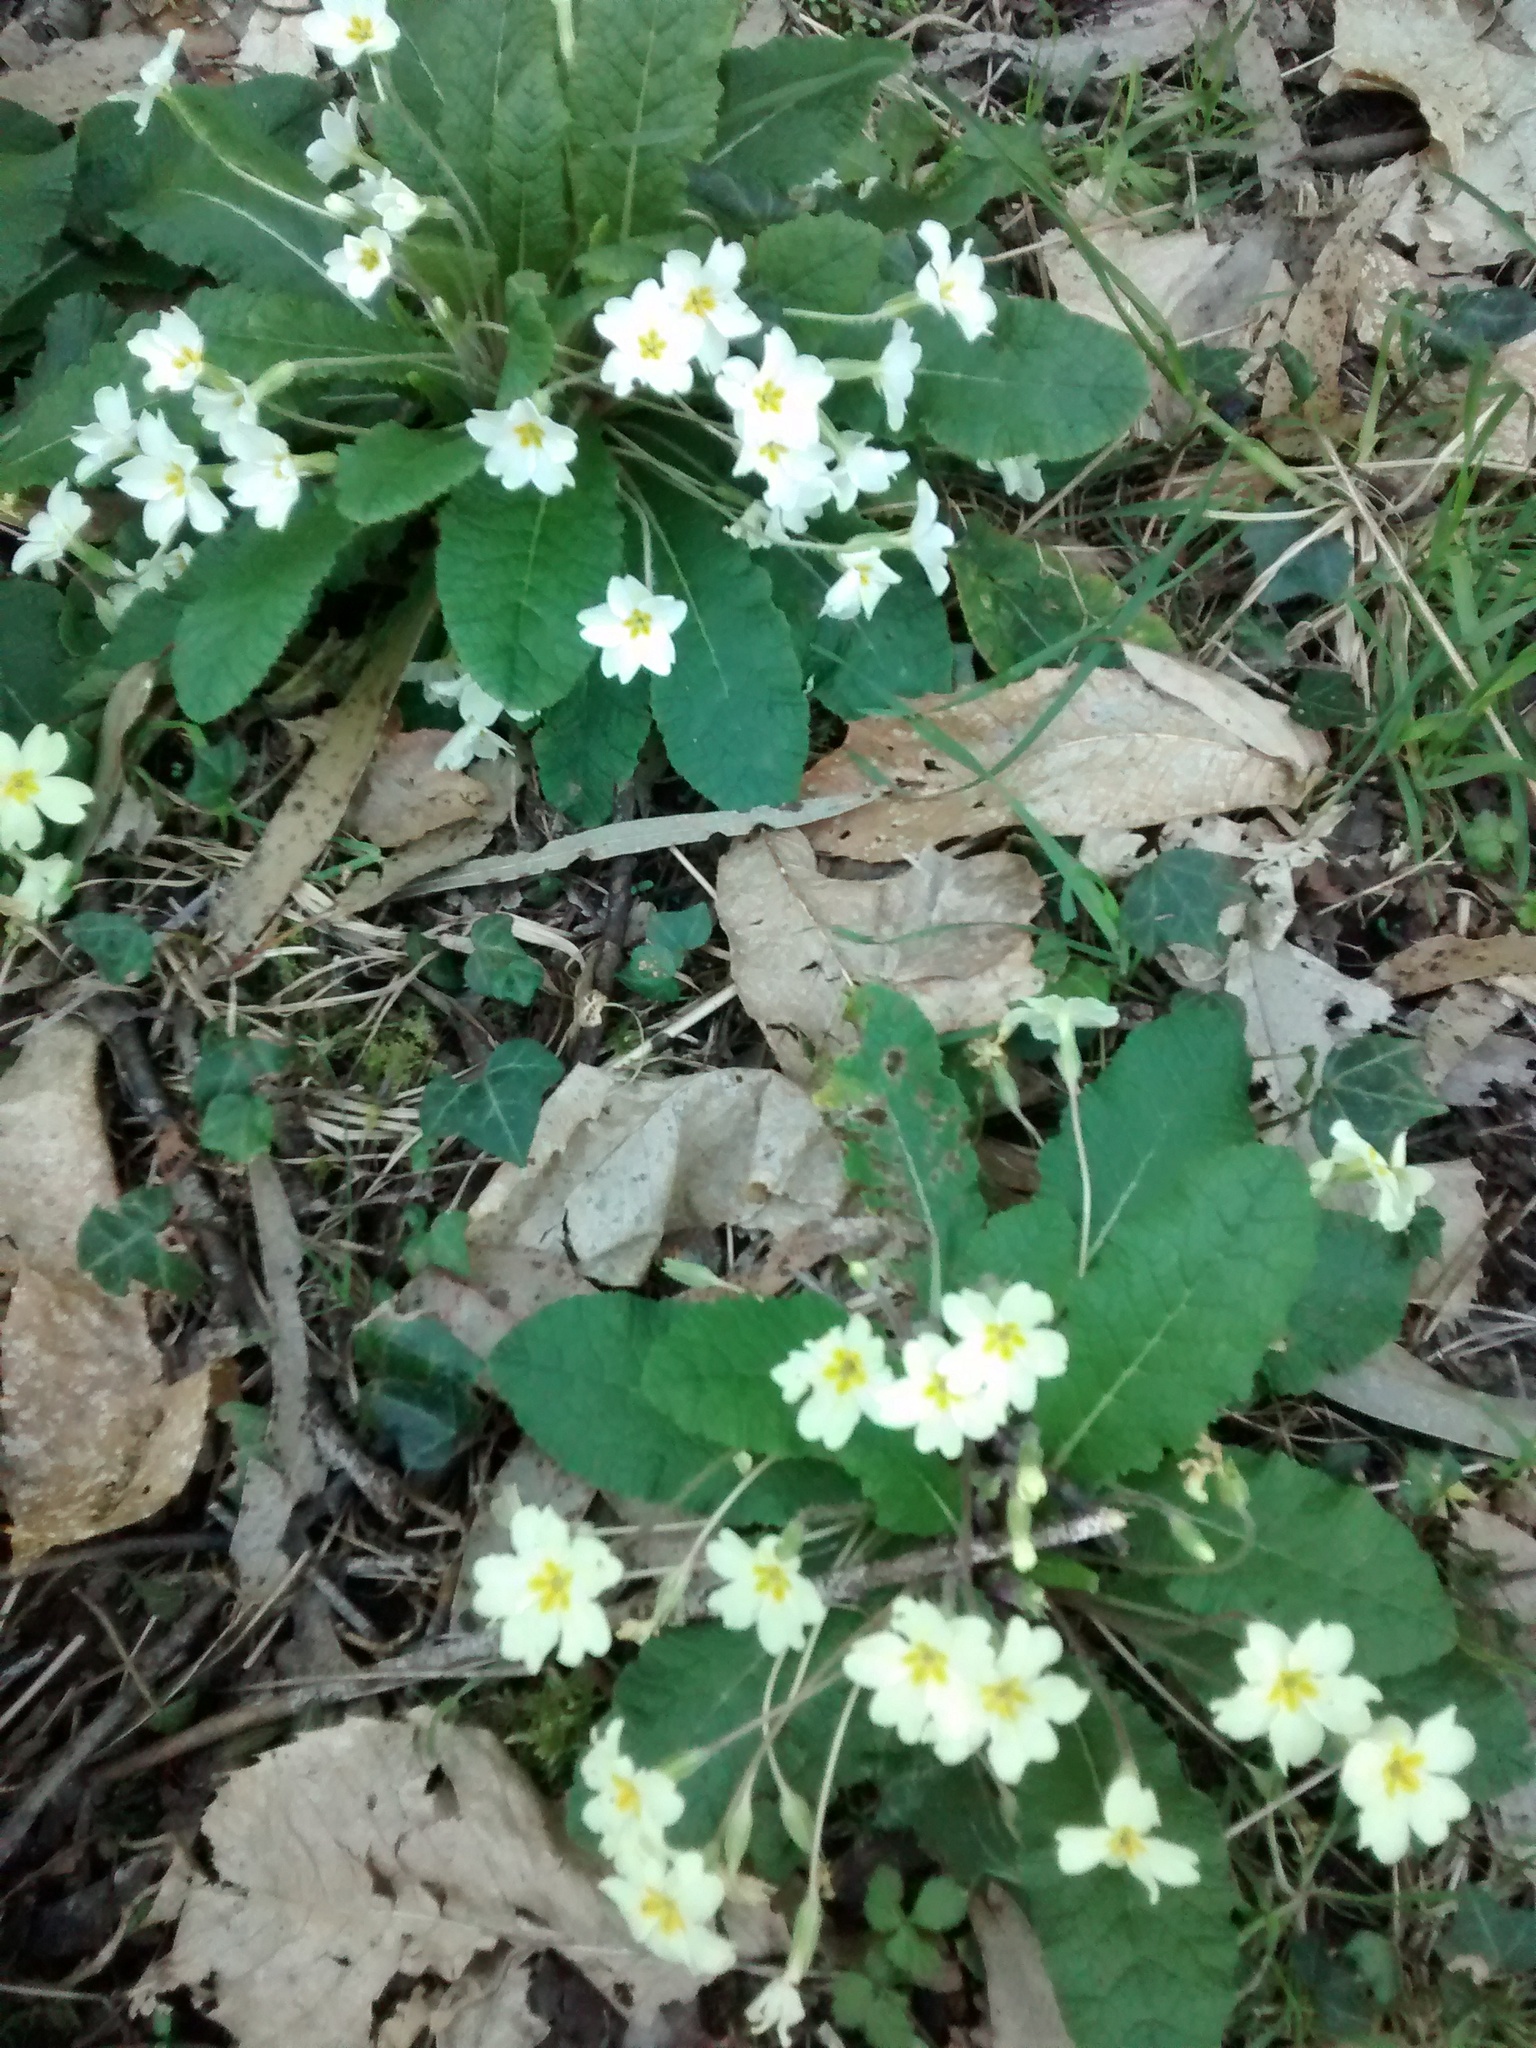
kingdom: Plantae
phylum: Tracheophyta
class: Magnoliopsida
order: Ericales
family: Primulaceae
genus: Primula
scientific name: Primula vulgaris
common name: Primrose
